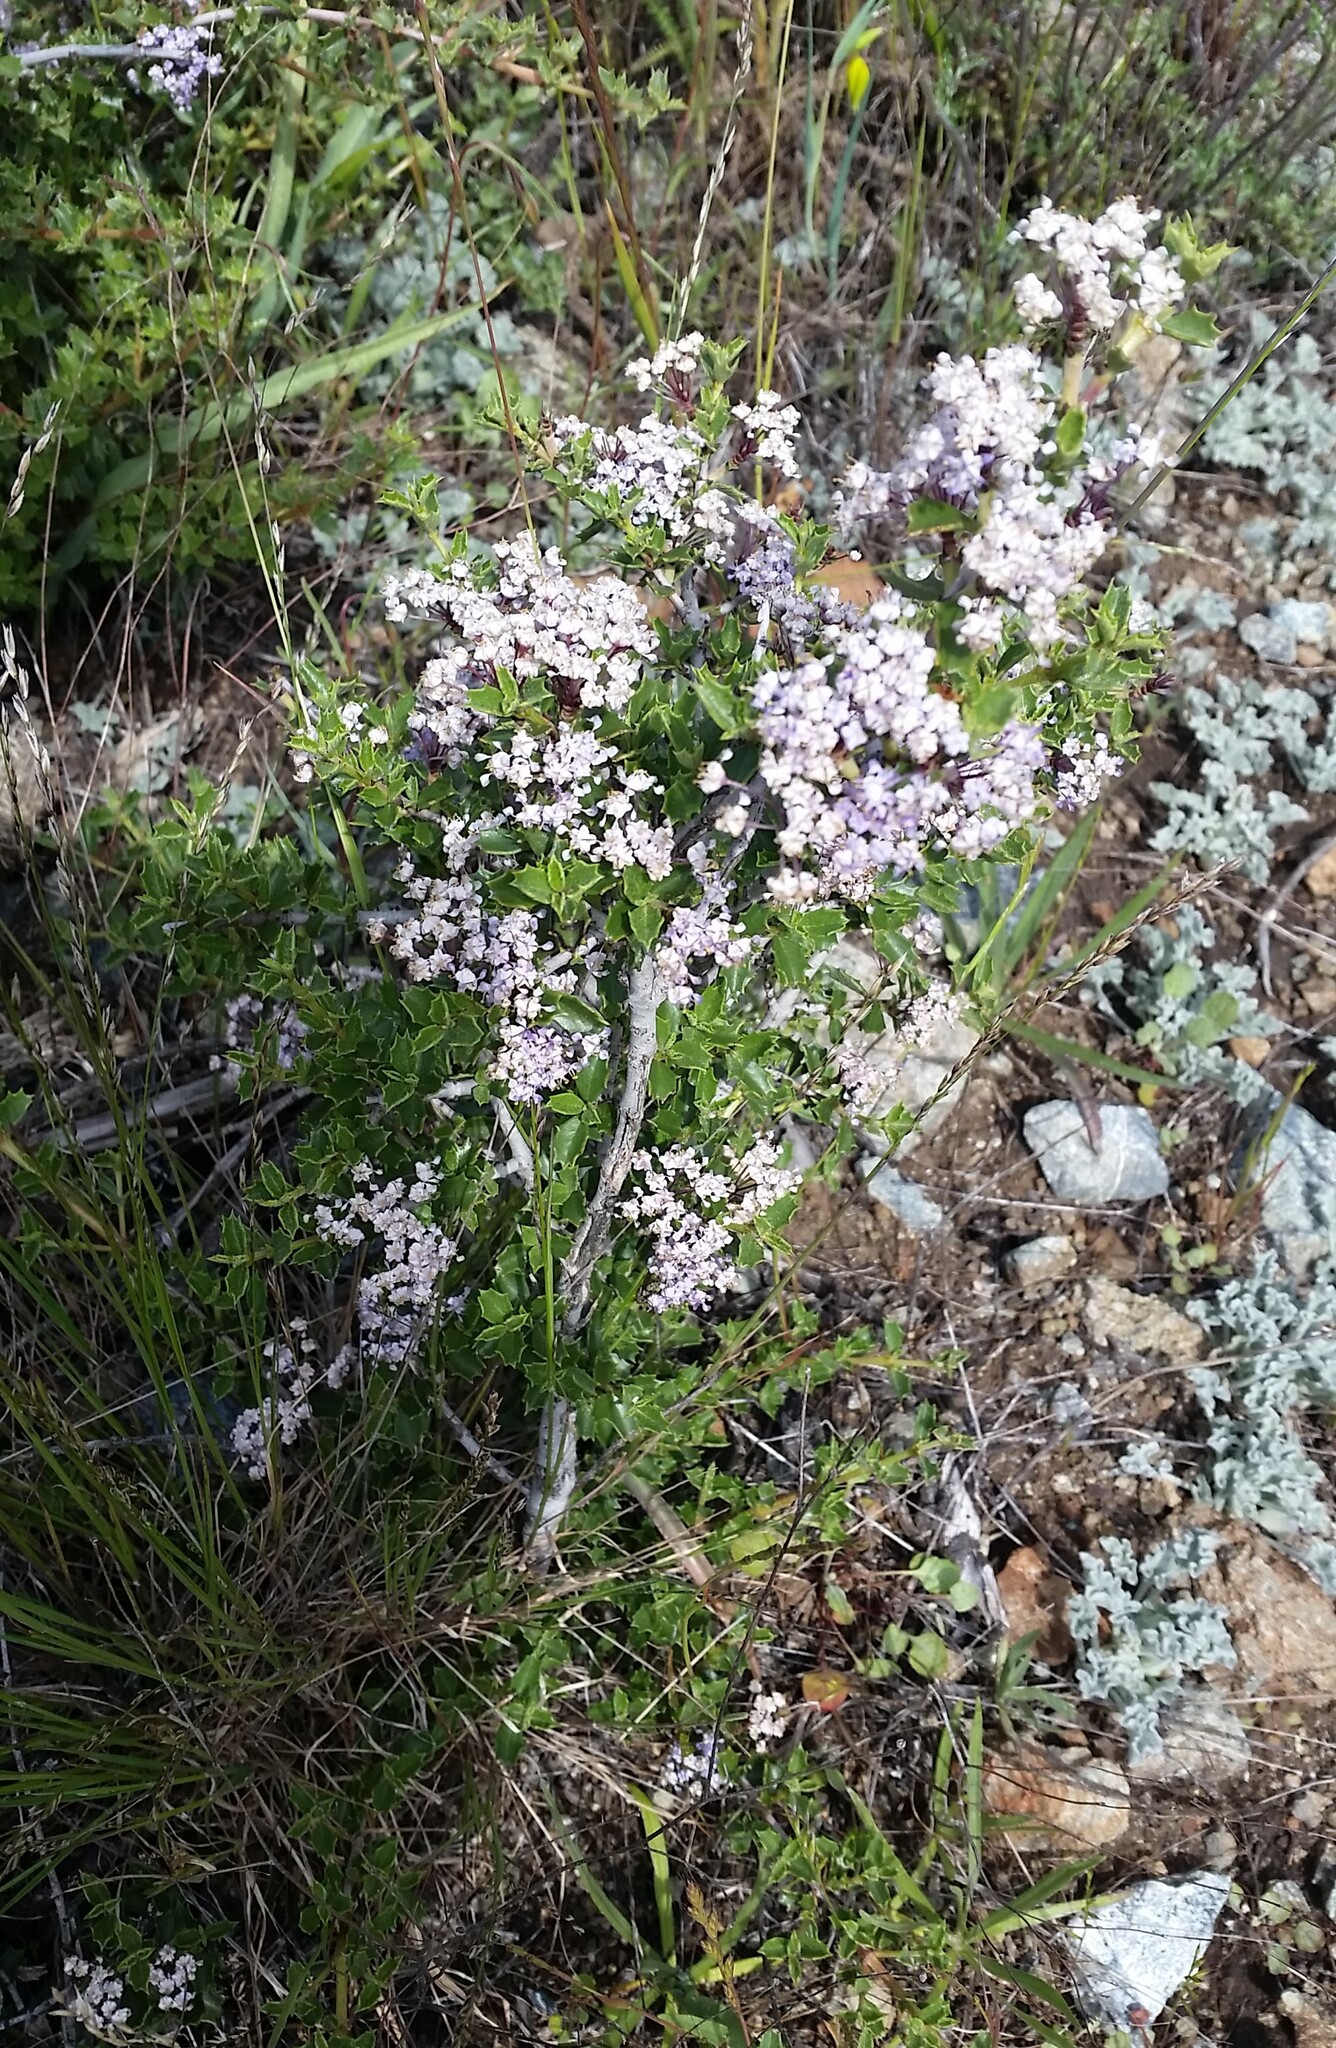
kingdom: Plantae
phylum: Tracheophyta
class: Magnoliopsida
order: Rosales
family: Rhamnaceae
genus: Ceanothus
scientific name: Ceanothus jepsonii
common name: Muskbrush
